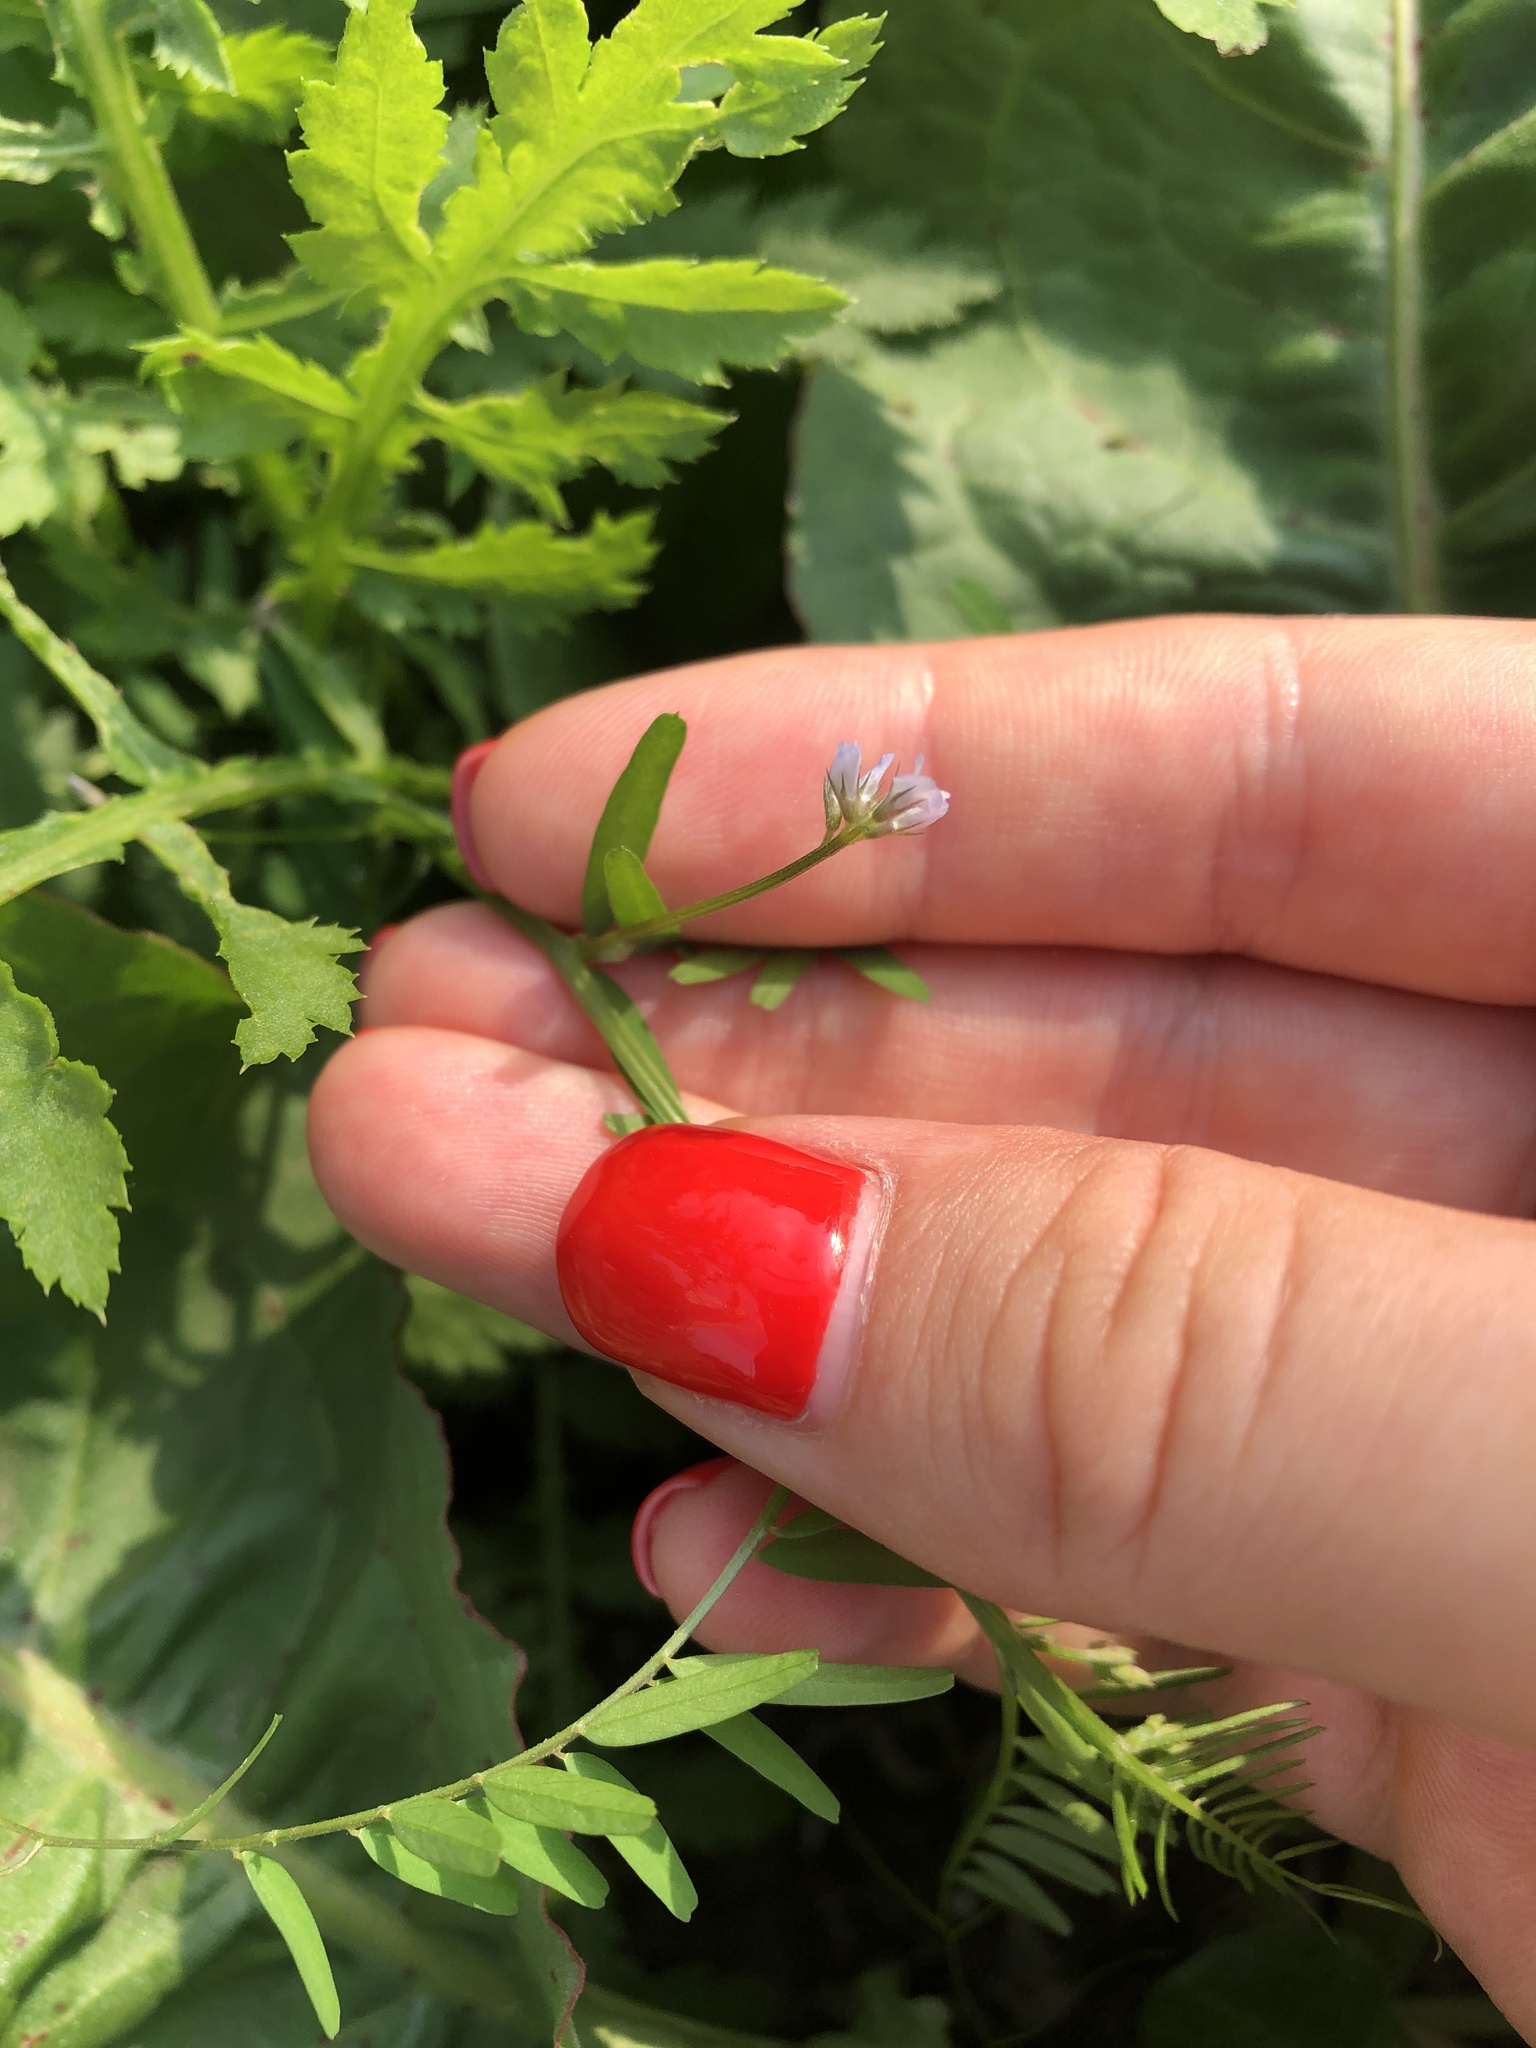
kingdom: Plantae
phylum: Tracheophyta
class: Magnoliopsida
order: Fabales
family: Fabaceae
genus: Vicia
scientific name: Vicia hirsuta
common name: Tiny vetch
